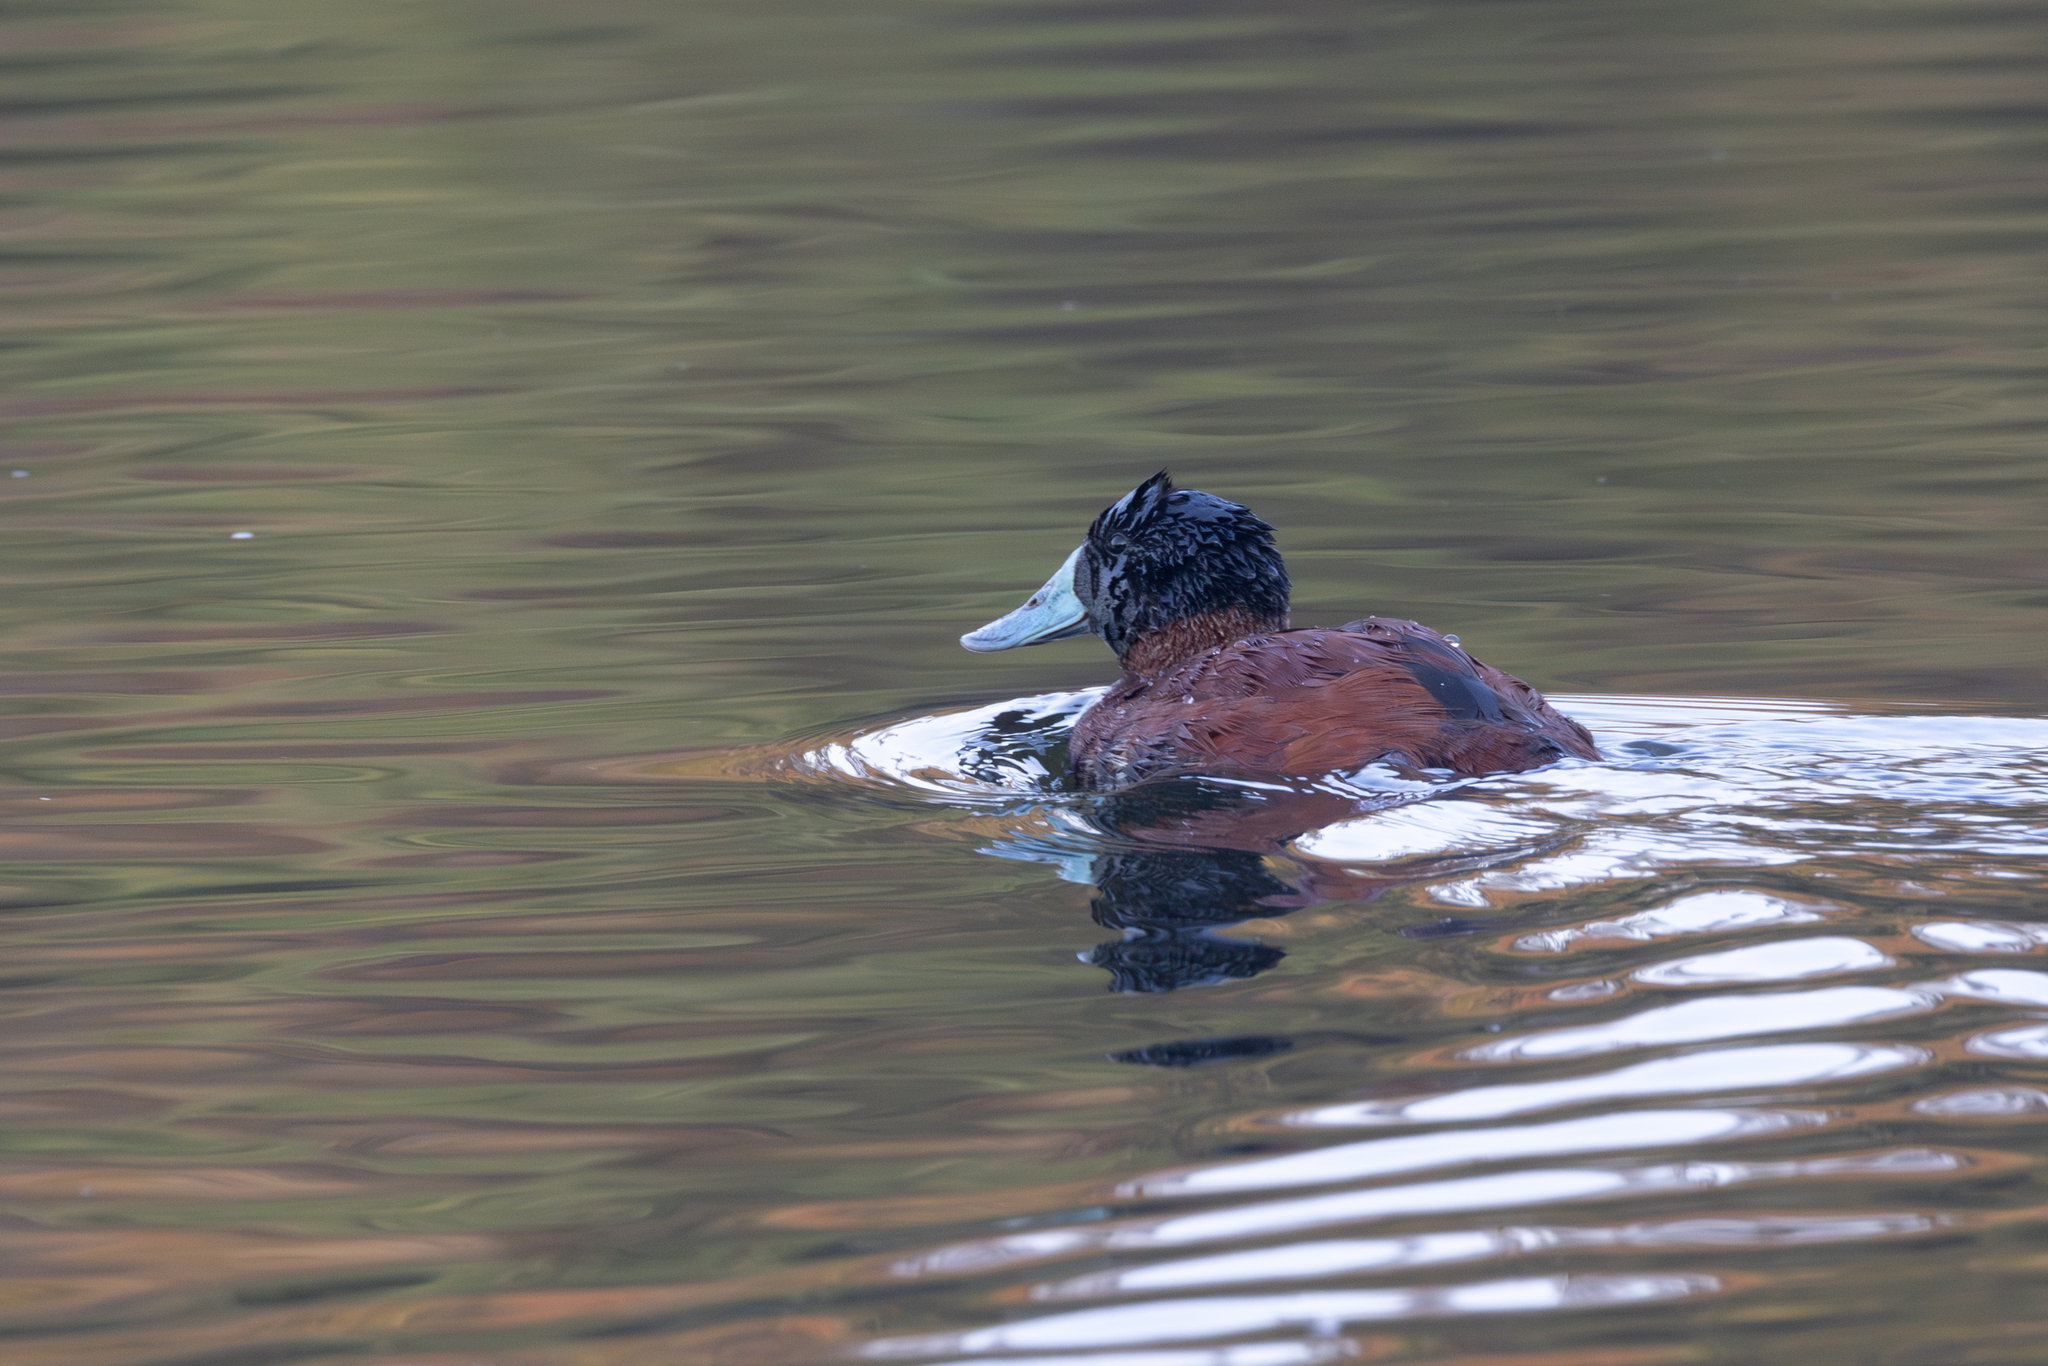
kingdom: Animalia
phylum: Chordata
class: Aves
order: Anseriformes
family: Anatidae
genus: Oxyura
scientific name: Oxyura ferruginea
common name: Andean duck
